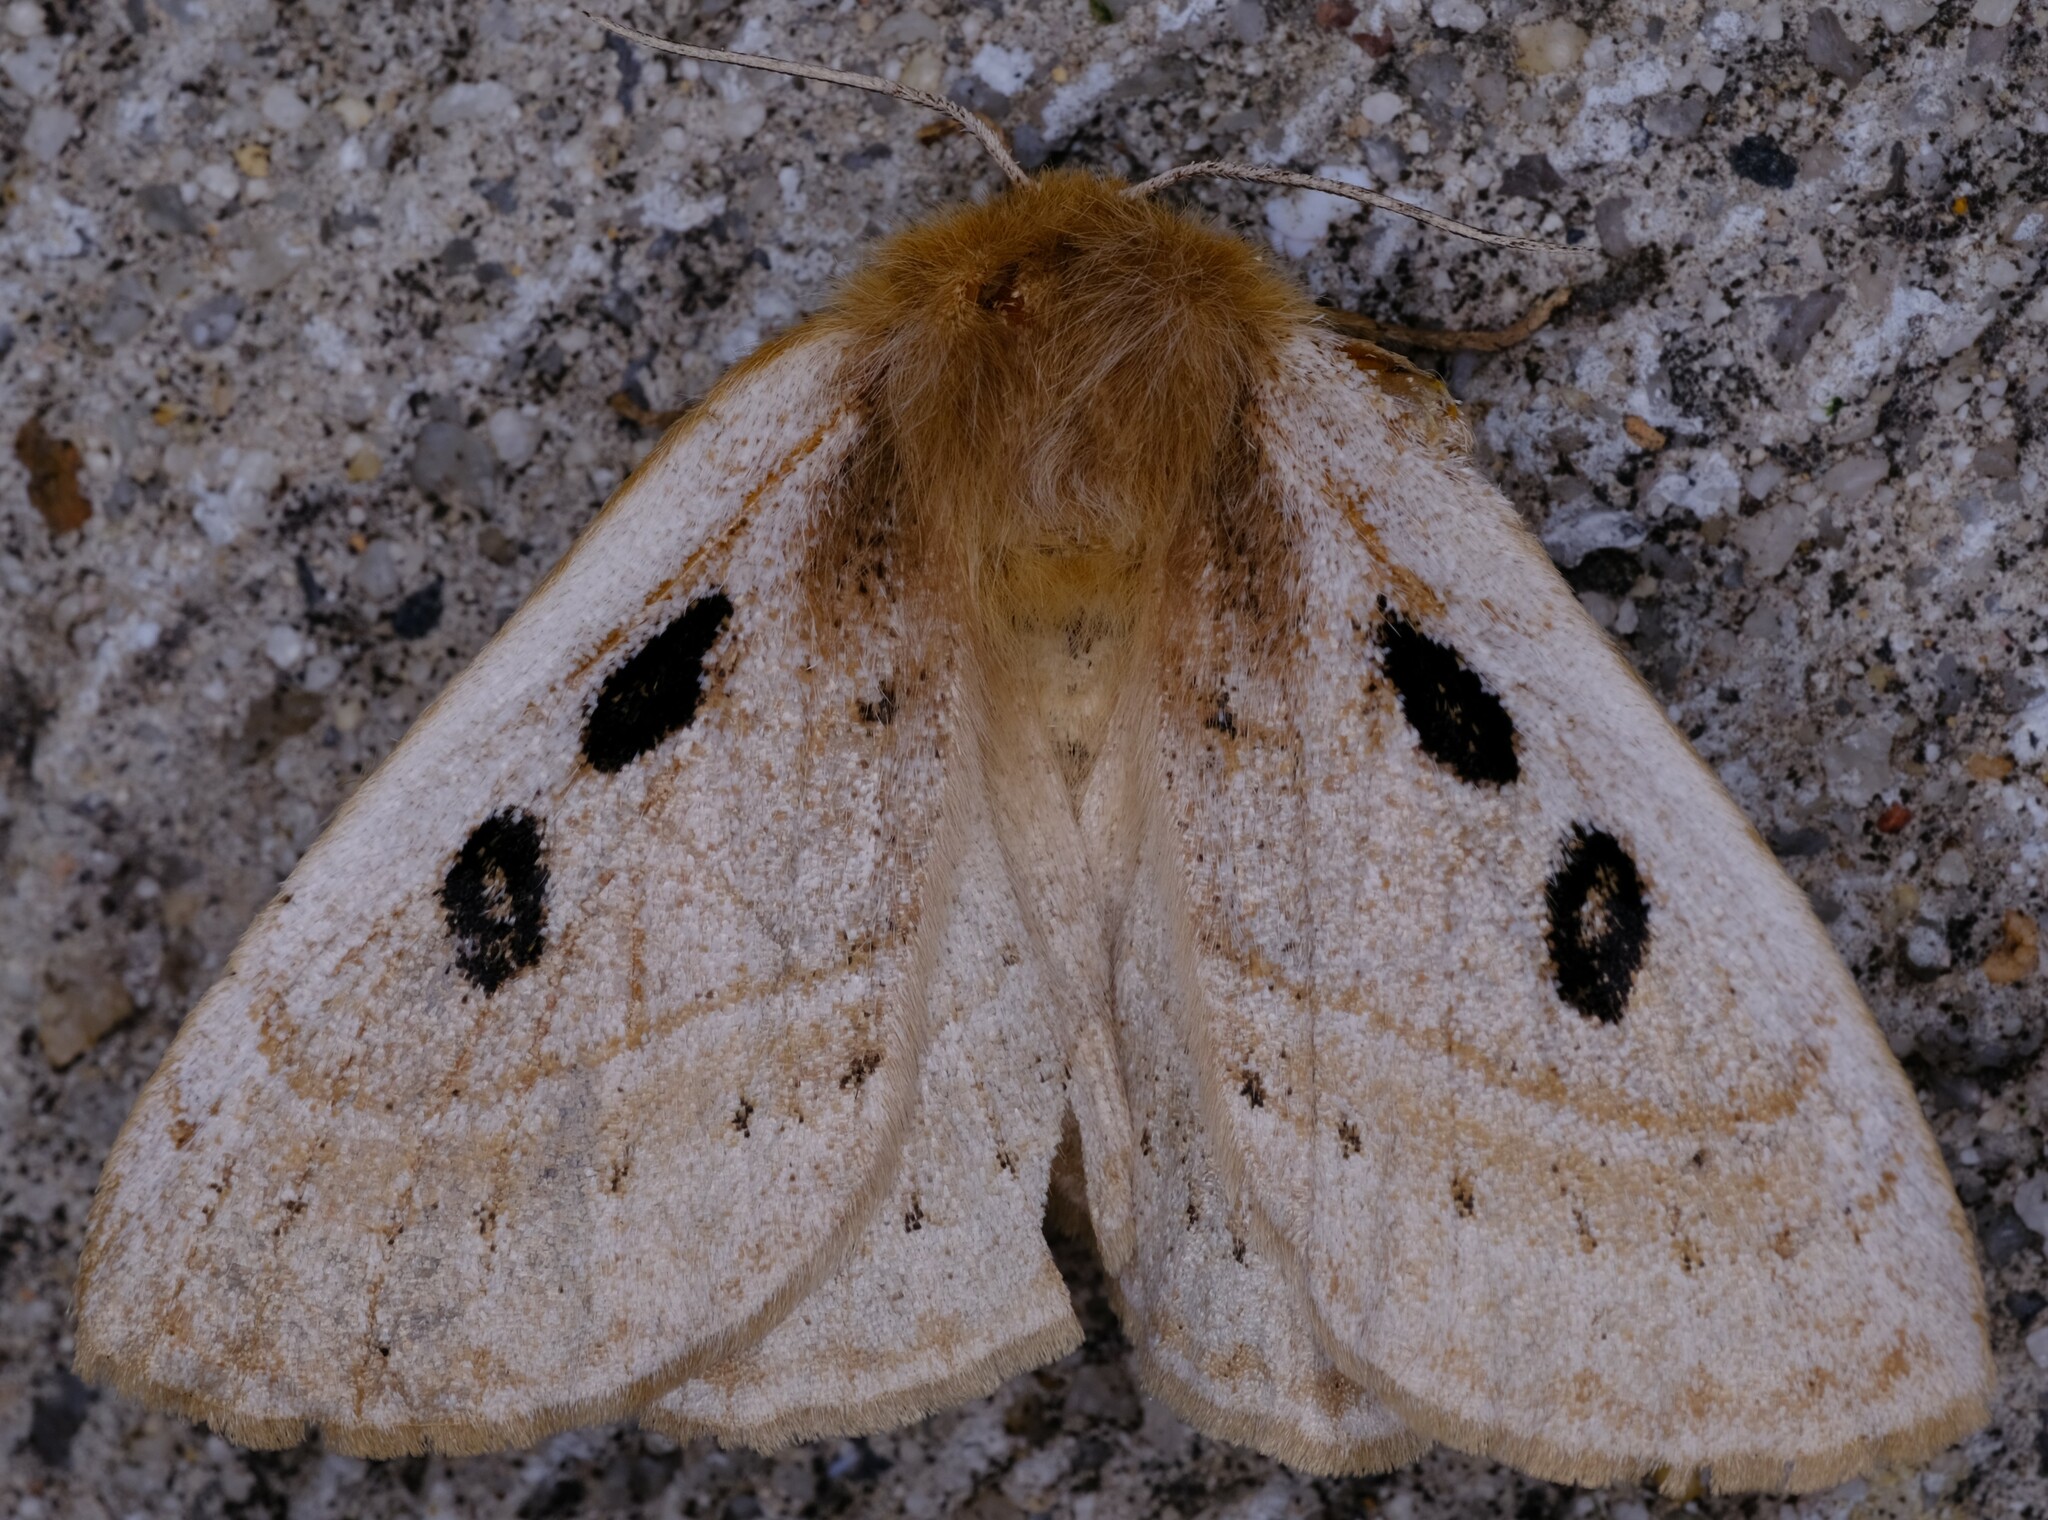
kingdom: Animalia
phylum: Arthropoda
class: Insecta
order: Lepidoptera
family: Anthelidae
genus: Anthela
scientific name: Anthela ocellata
